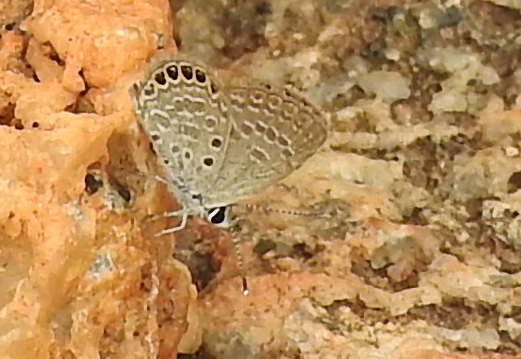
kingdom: Animalia
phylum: Arthropoda
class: Insecta
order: Lepidoptera
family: Lycaenidae
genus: Freyeria
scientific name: Freyeria putli
